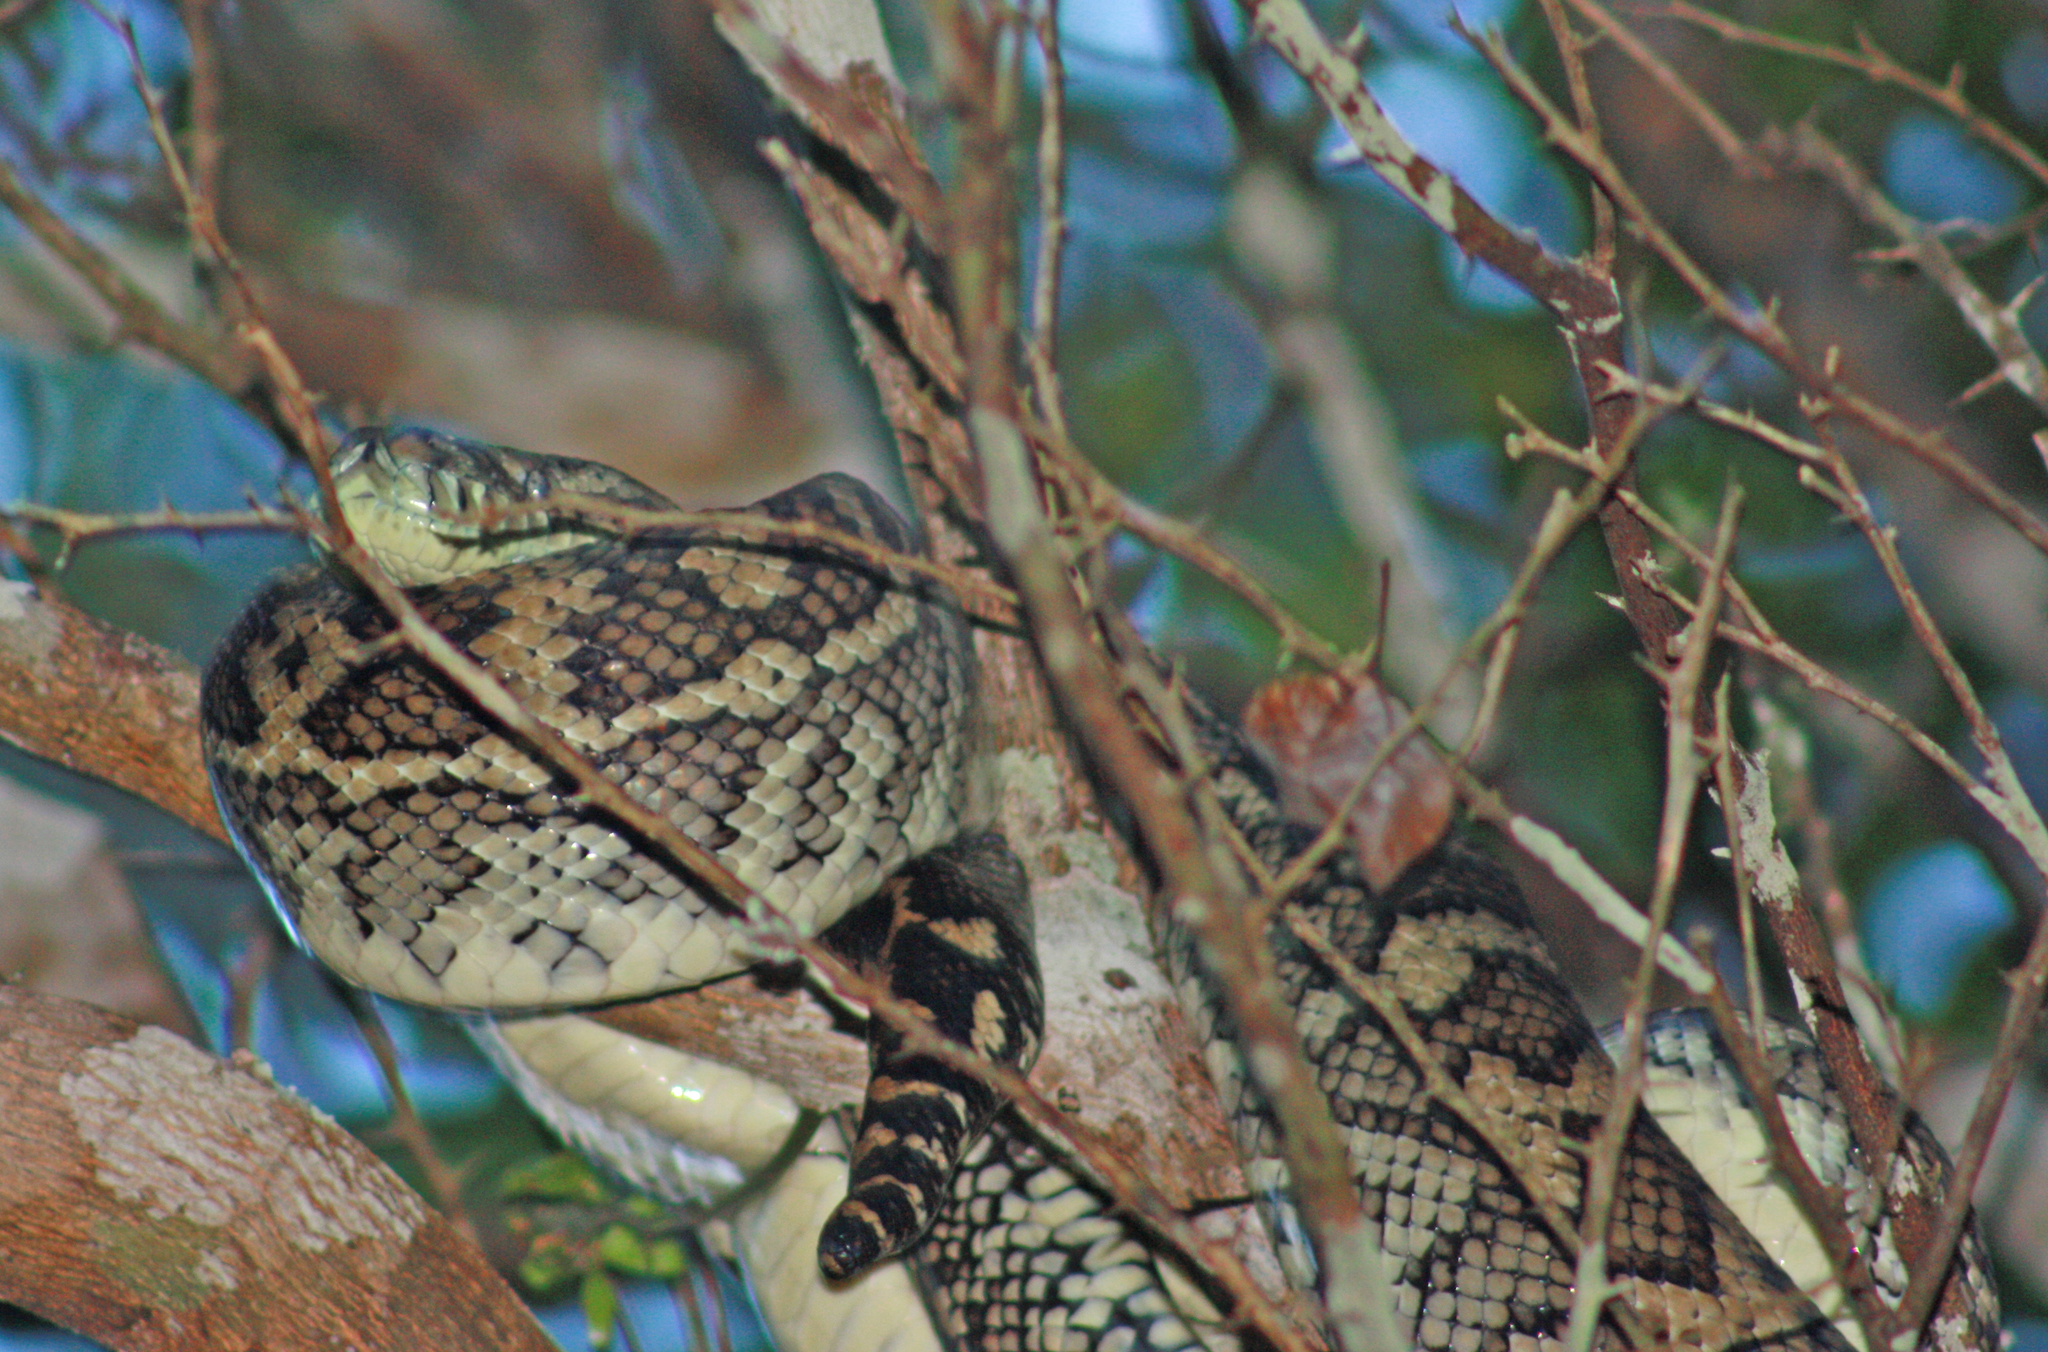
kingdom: Animalia
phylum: Chordata
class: Squamata
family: Pythonidae
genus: Morelia
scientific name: Morelia spilota
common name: Carpet python
